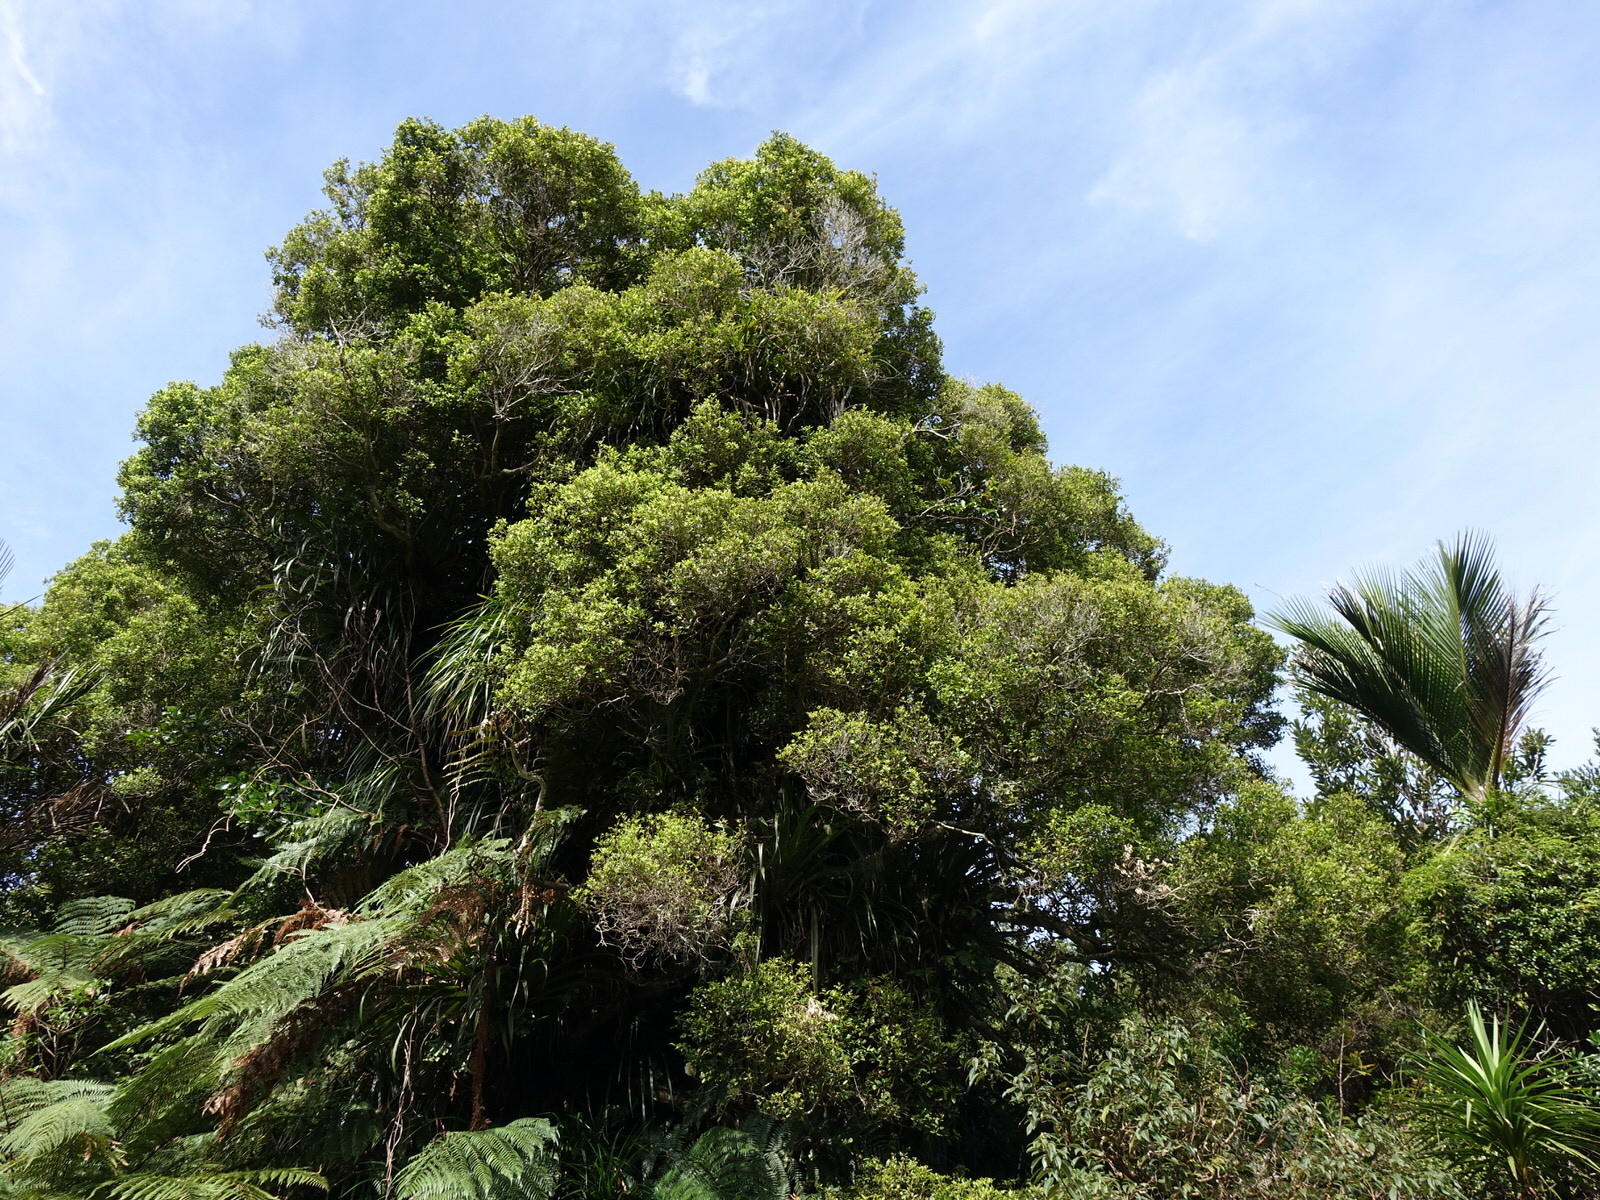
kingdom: Plantae
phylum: Tracheophyta
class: Magnoliopsida
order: Myrtales
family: Myrtaceae
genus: Syzygium
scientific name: Syzygium maire
